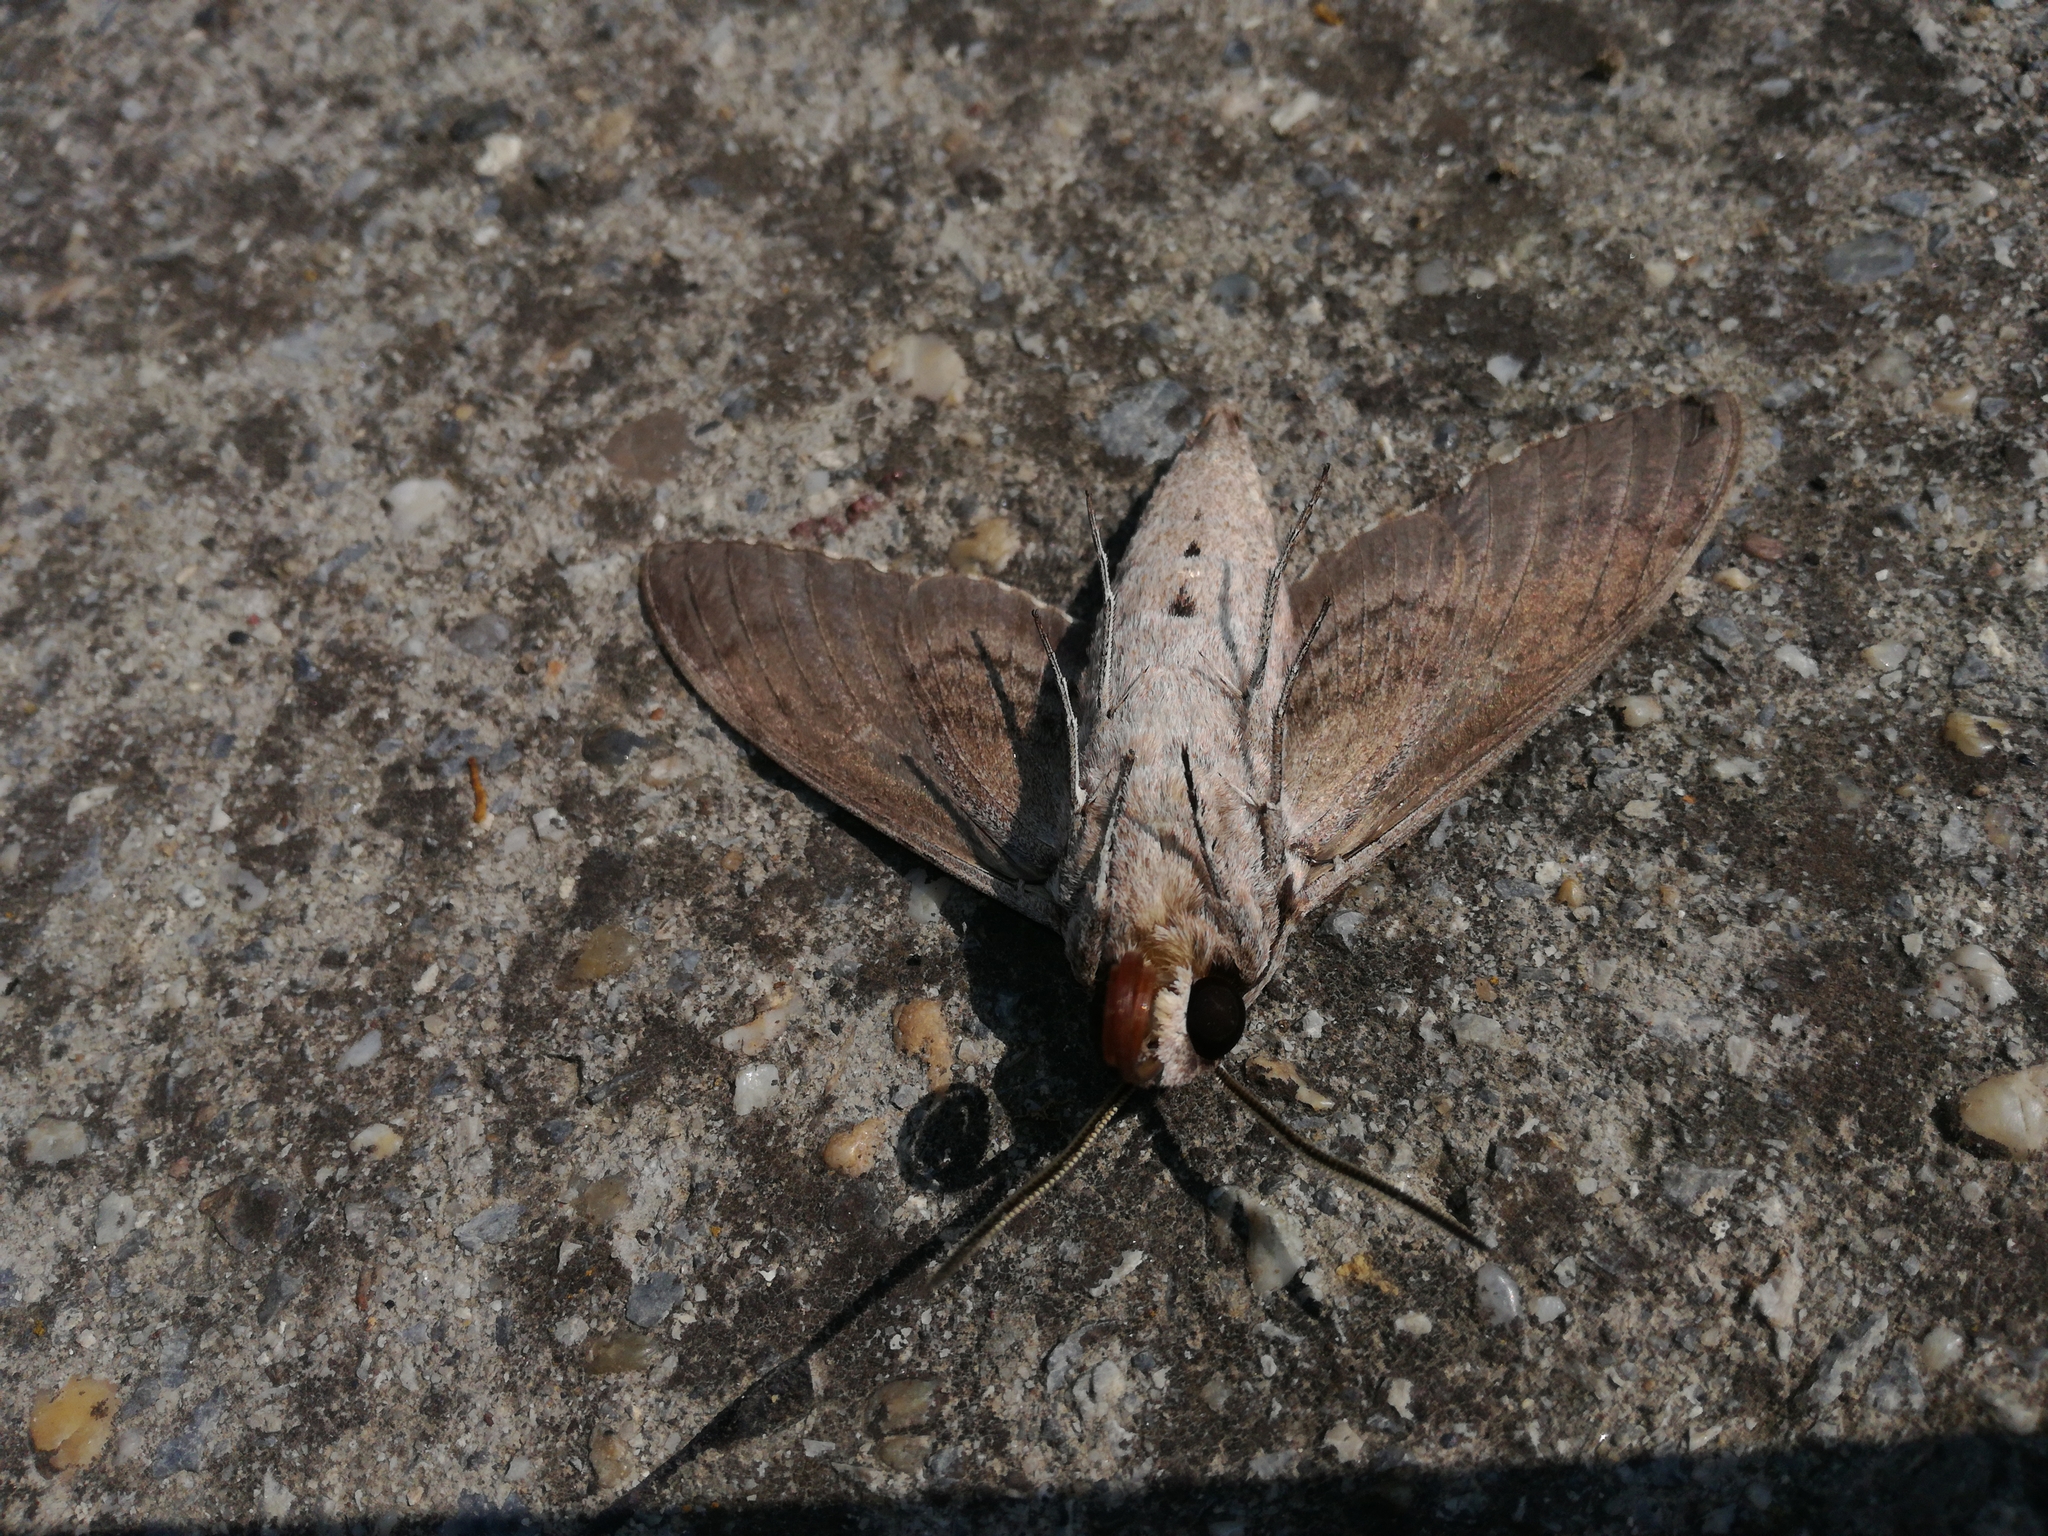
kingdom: Animalia
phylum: Arthropoda
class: Insecta
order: Lepidoptera
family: Sphingidae
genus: Agrius
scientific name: Agrius convolvuli
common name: Convolvulus hawkmoth
